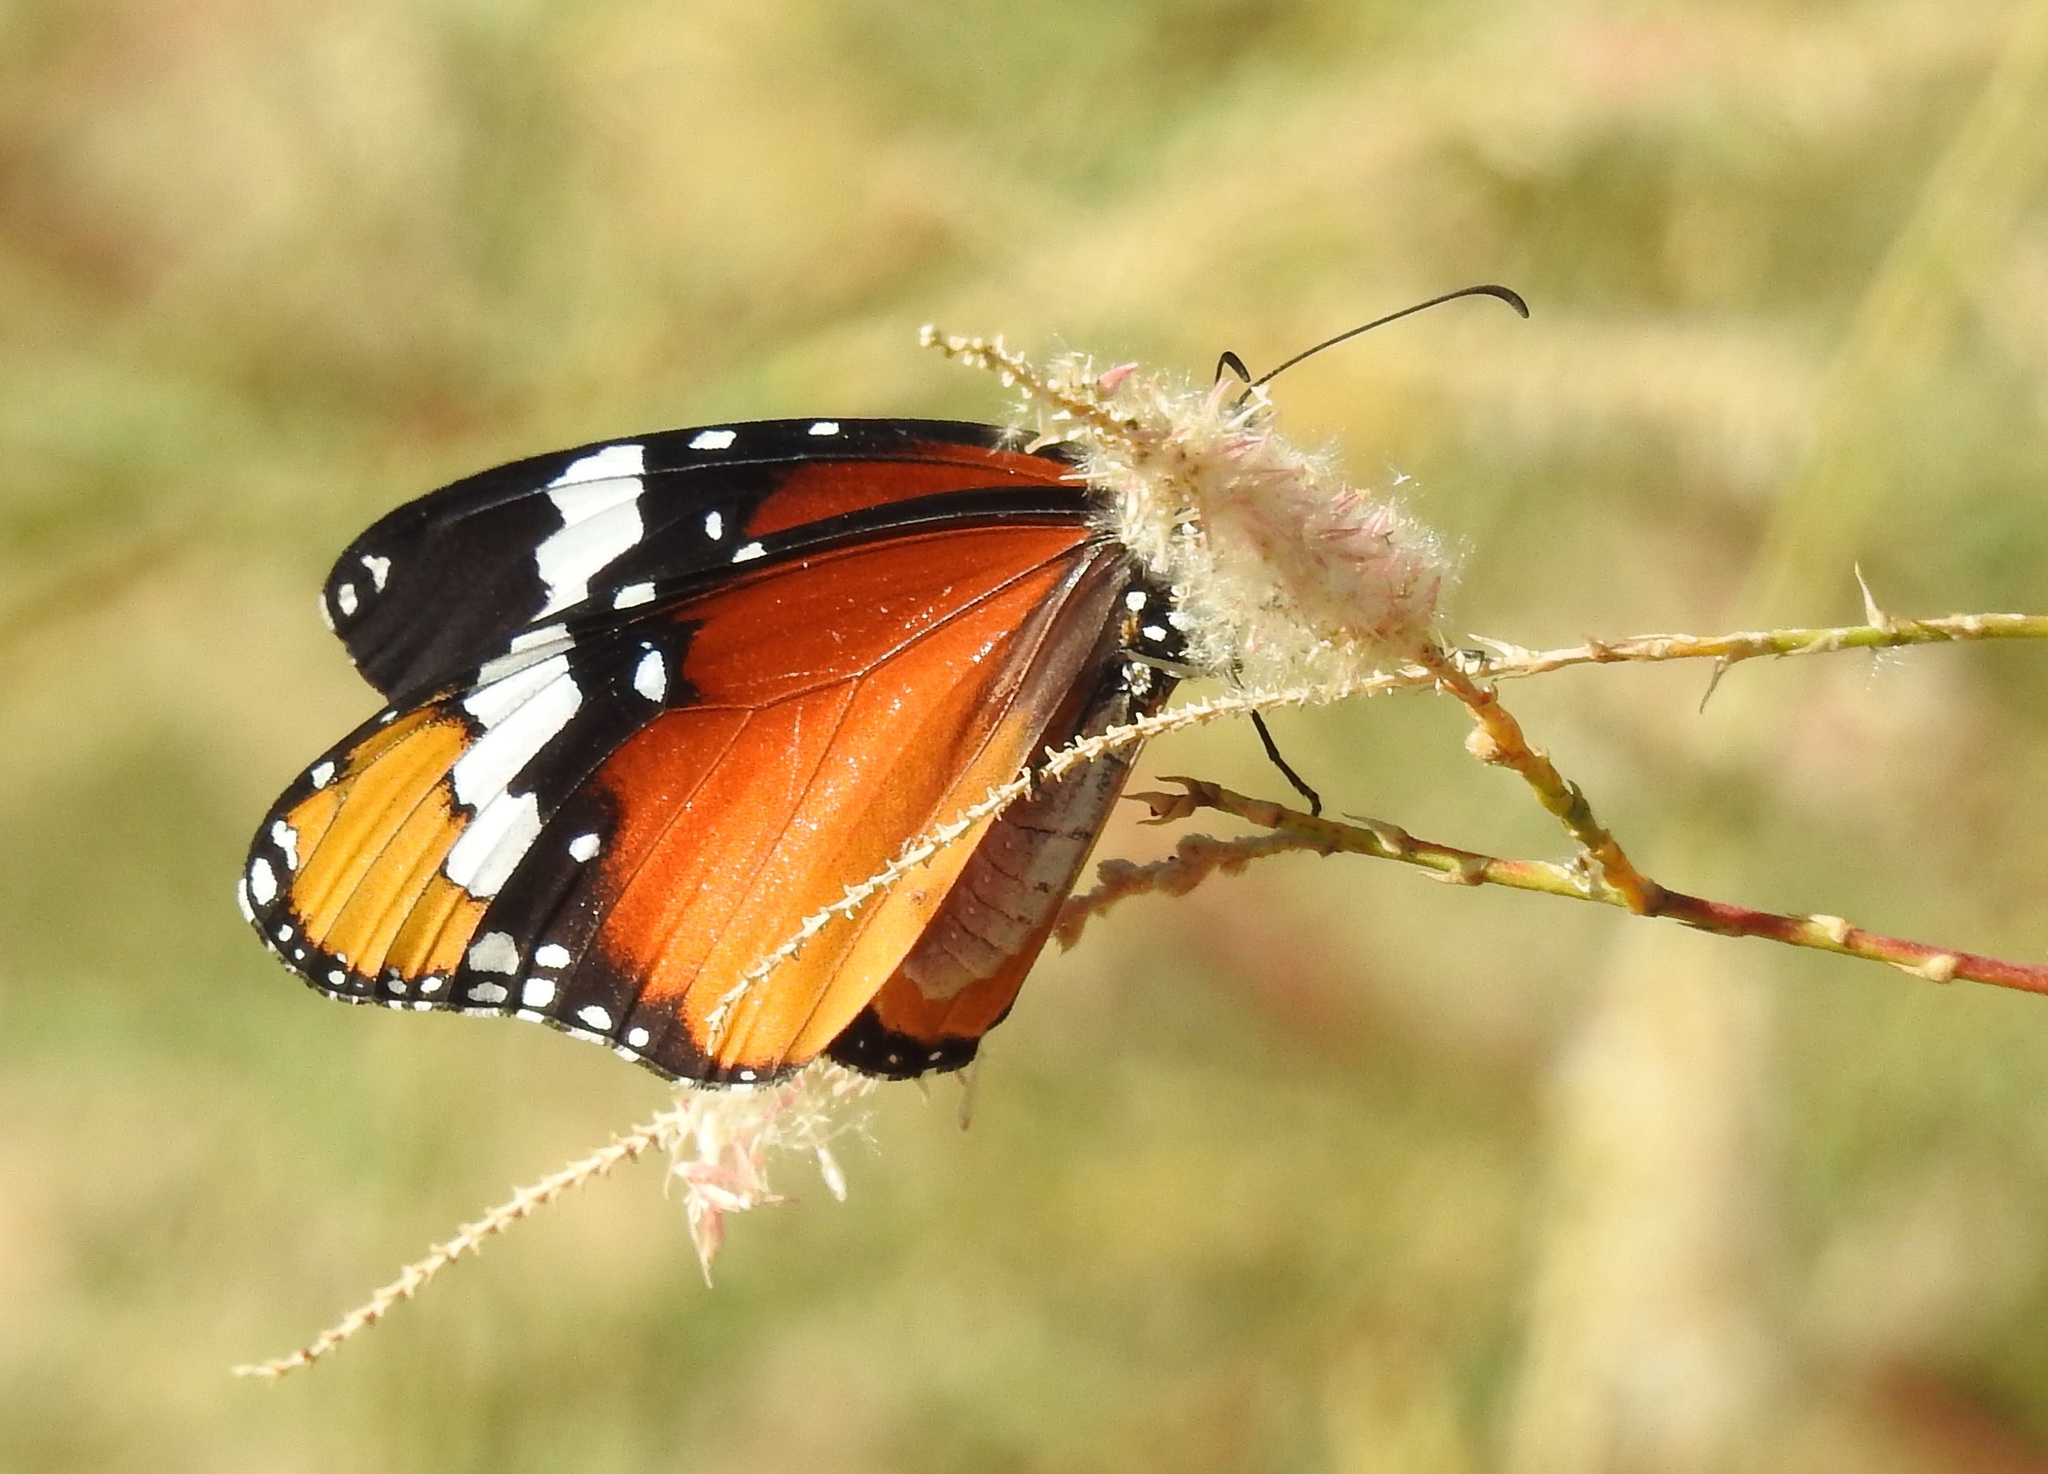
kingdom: Animalia
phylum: Arthropoda
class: Insecta
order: Lepidoptera
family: Nymphalidae
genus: Danaus
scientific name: Danaus chrysippus
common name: Plain tiger
